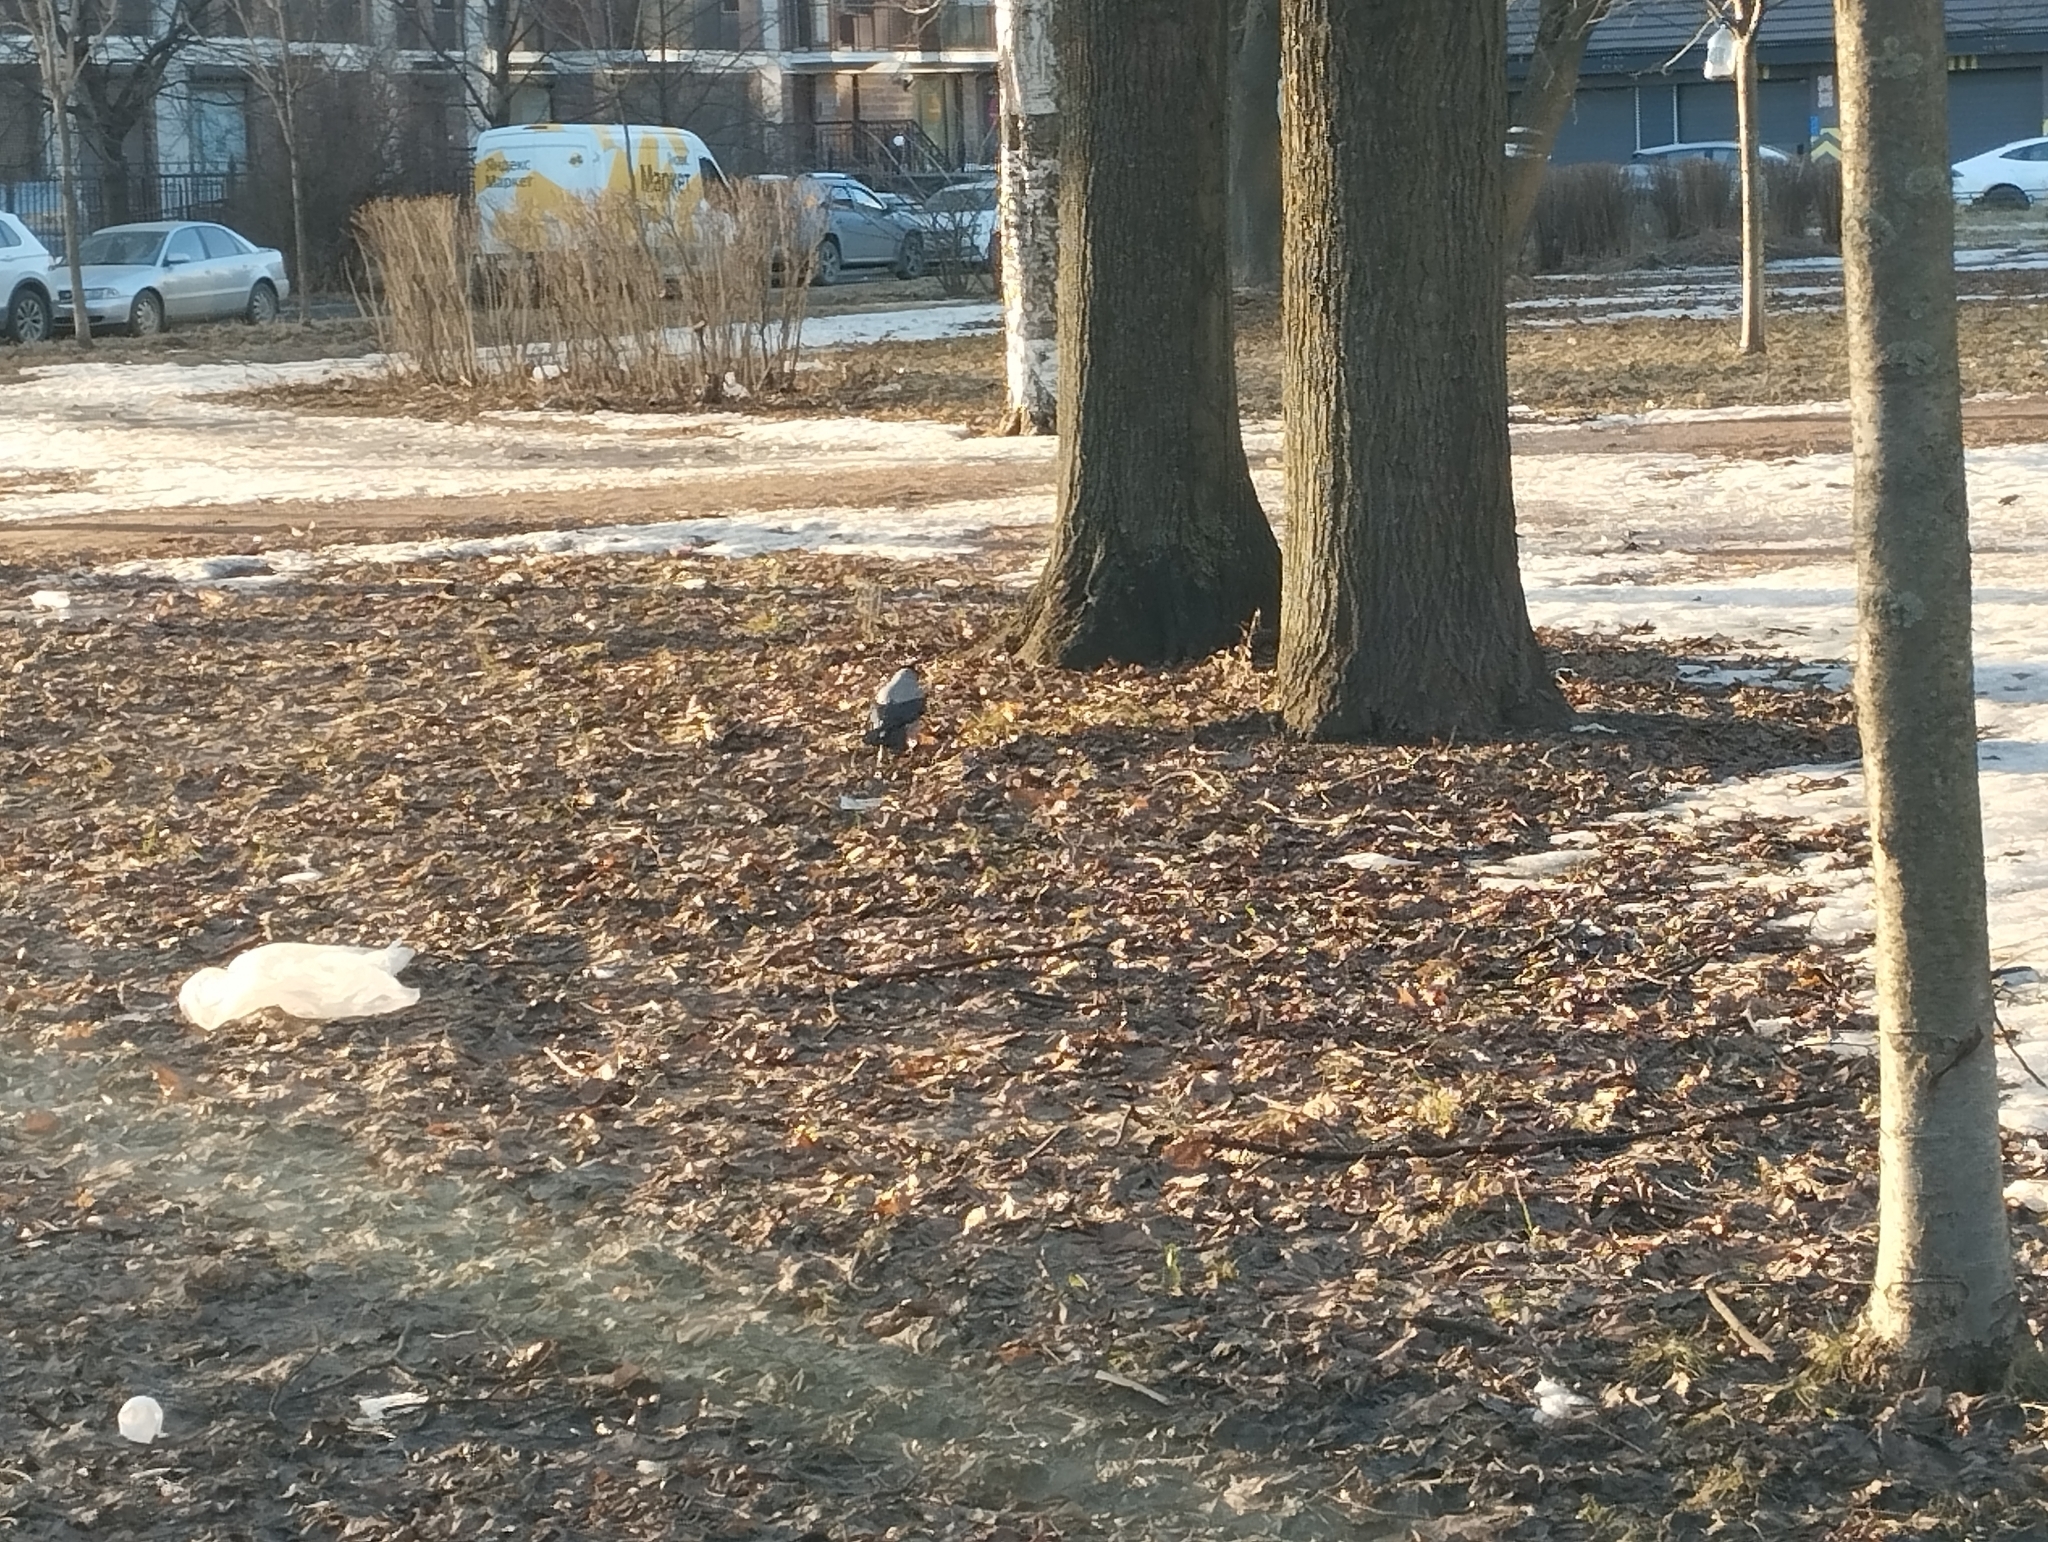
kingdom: Animalia
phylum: Chordata
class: Aves
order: Passeriformes
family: Corvidae
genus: Corvus
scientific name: Corvus cornix
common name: Hooded crow
